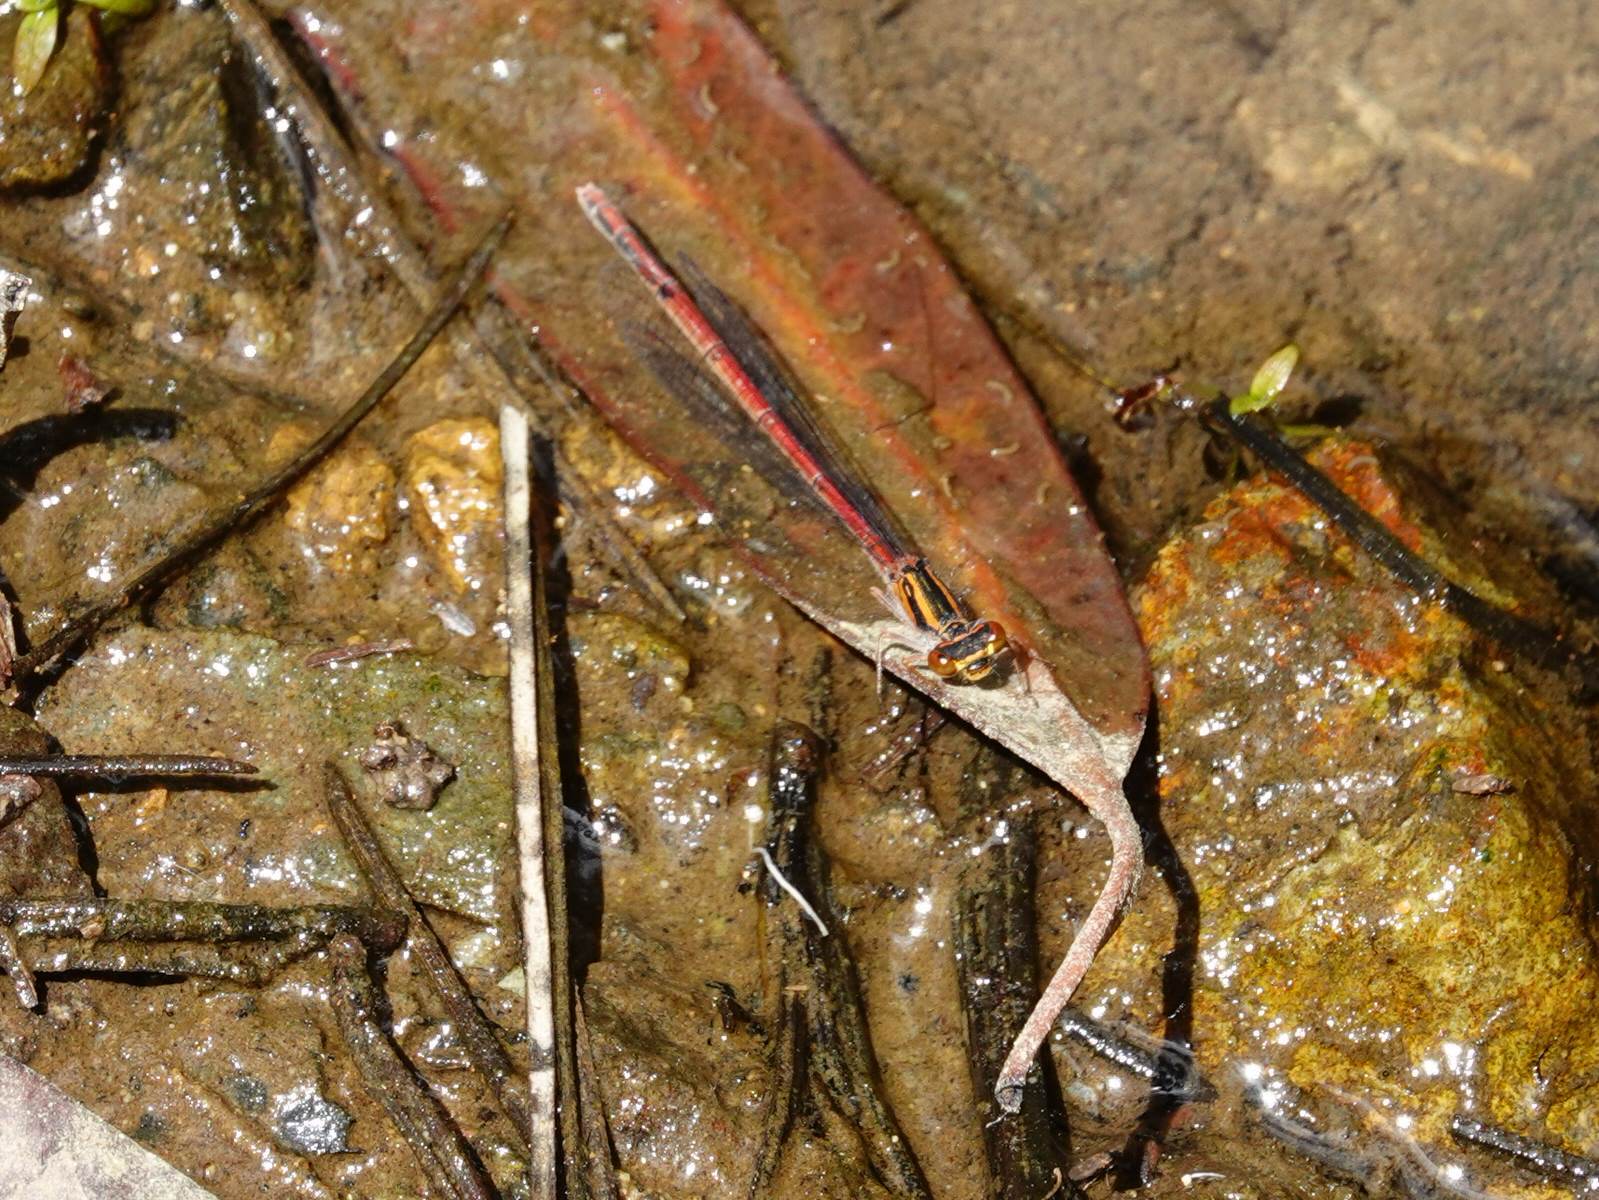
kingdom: Animalia
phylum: Arthropoda
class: Insecta
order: Odonata
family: Coenagrionidae
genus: Xanthocnemis
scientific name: Xanthocnemis zealandica
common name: Common redcoat damselfly
